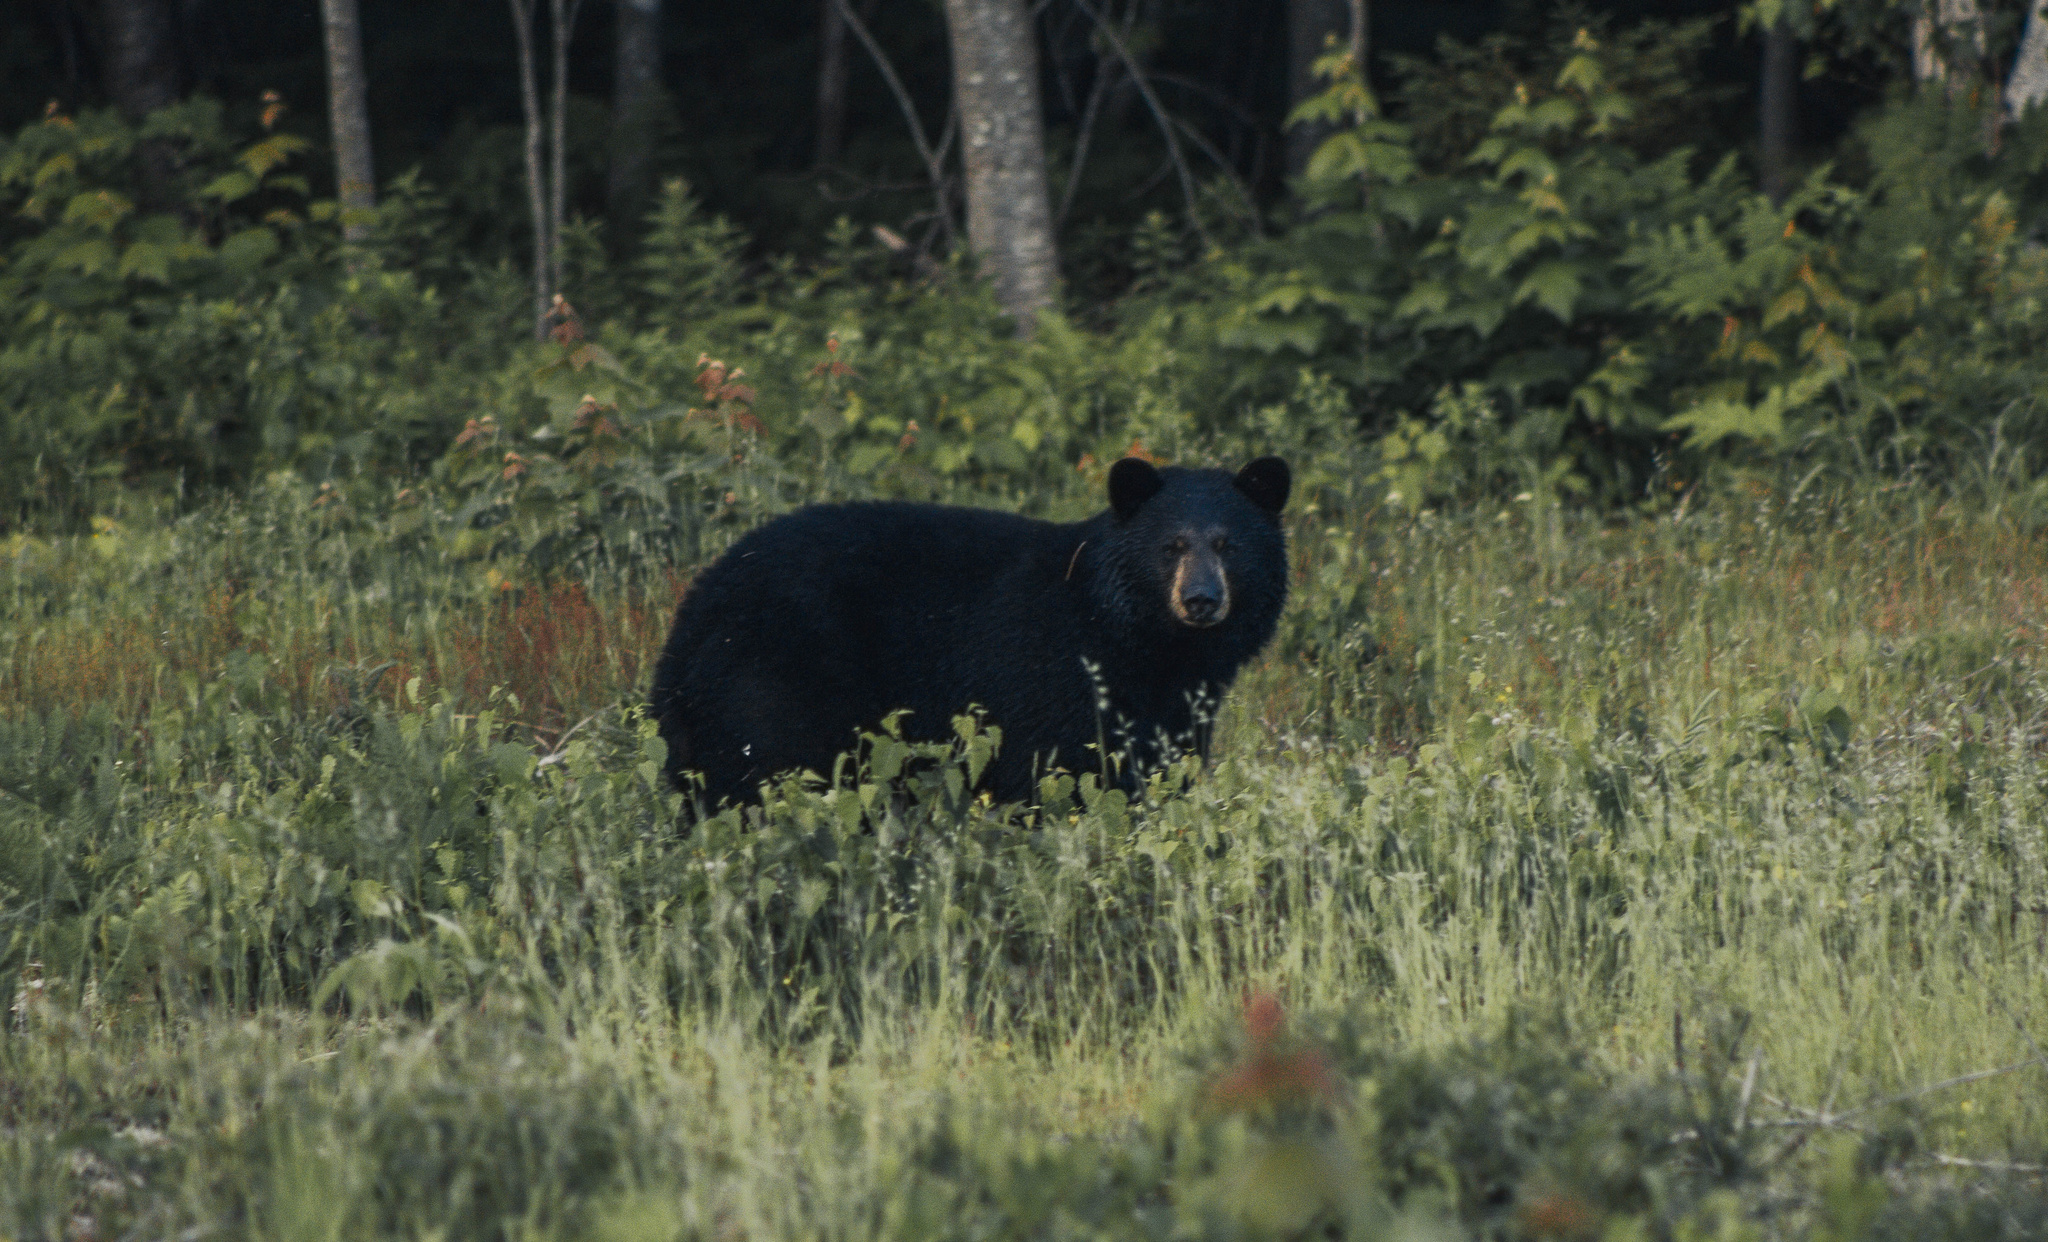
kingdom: Animalia
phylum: Chordata
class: Mammalia
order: Carnivora
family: Ursidae
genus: Ursus
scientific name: Ursus americanus
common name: American black bear
